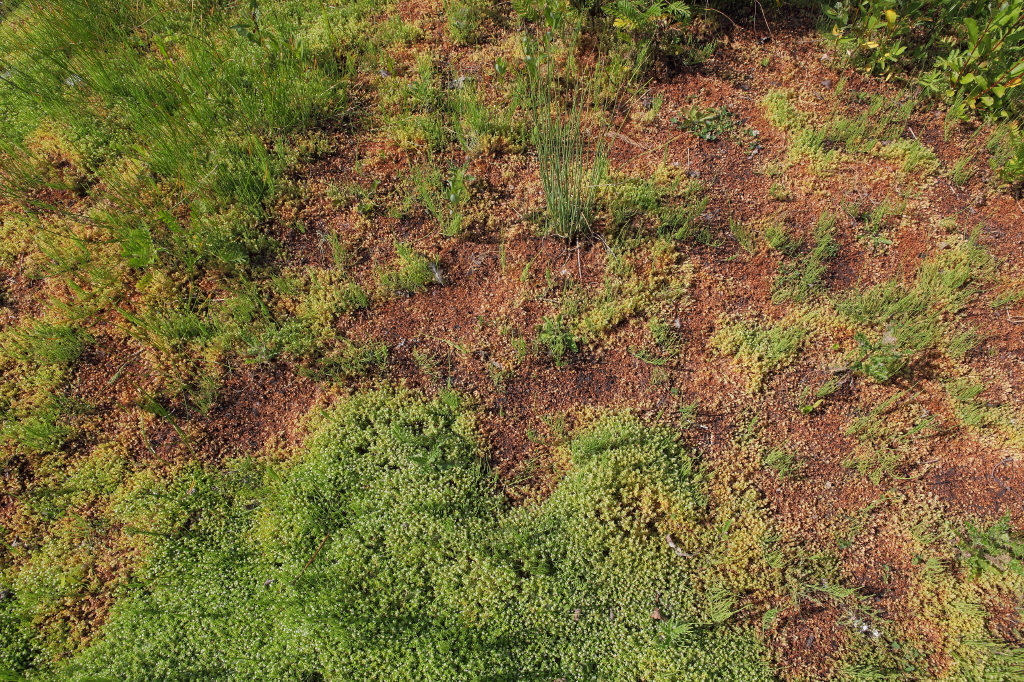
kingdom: Plantae
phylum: Tracheophyta
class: Magnoliopsida
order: Saxifragales
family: Crassulaceae
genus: Crassula
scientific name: Crassula helmsii
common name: New zealand pigmyweed
